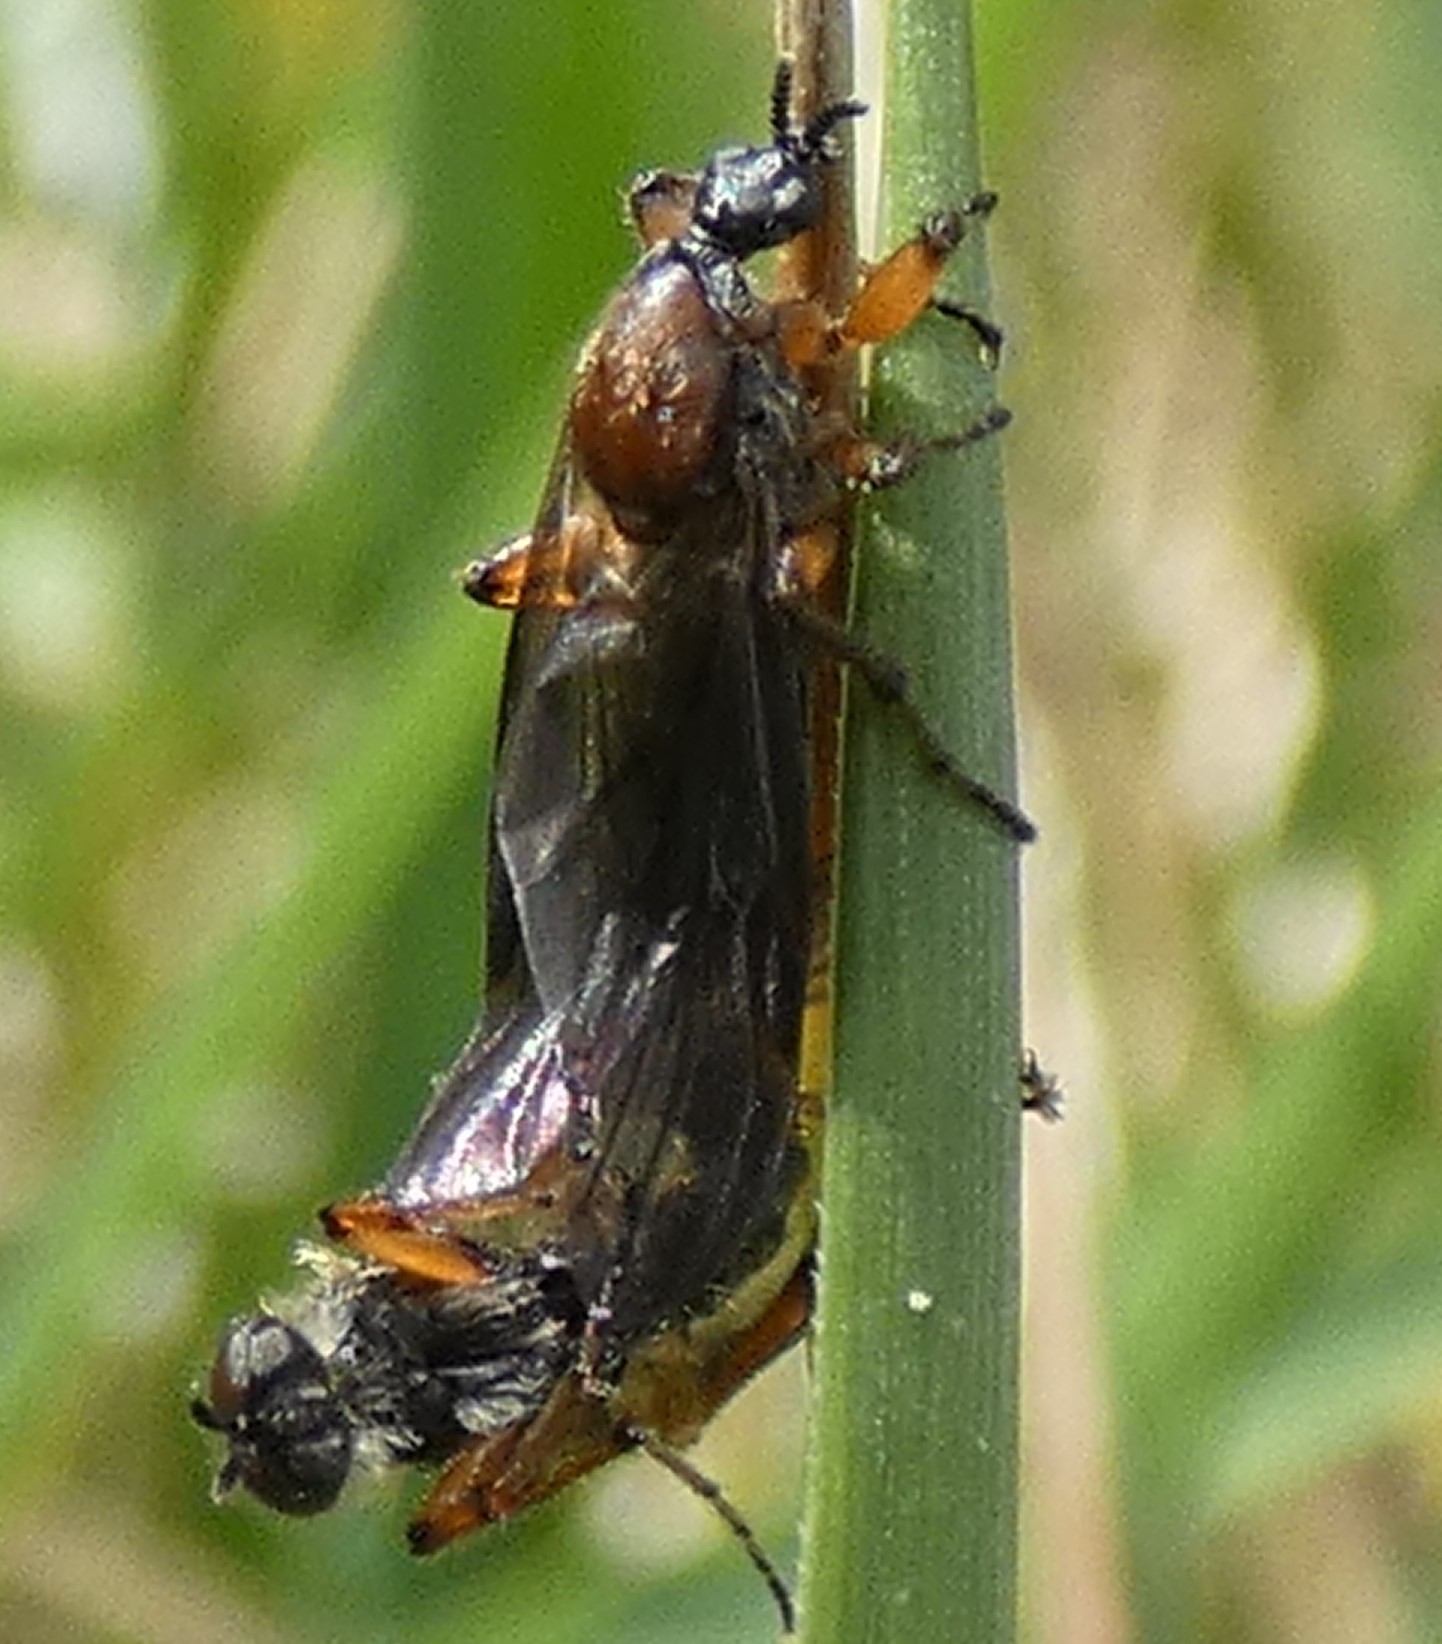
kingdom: Animalia
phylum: Arthropoda
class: Insecta
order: Diptera
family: Bibionidae
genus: Bibio
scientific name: Bibio articulatus
